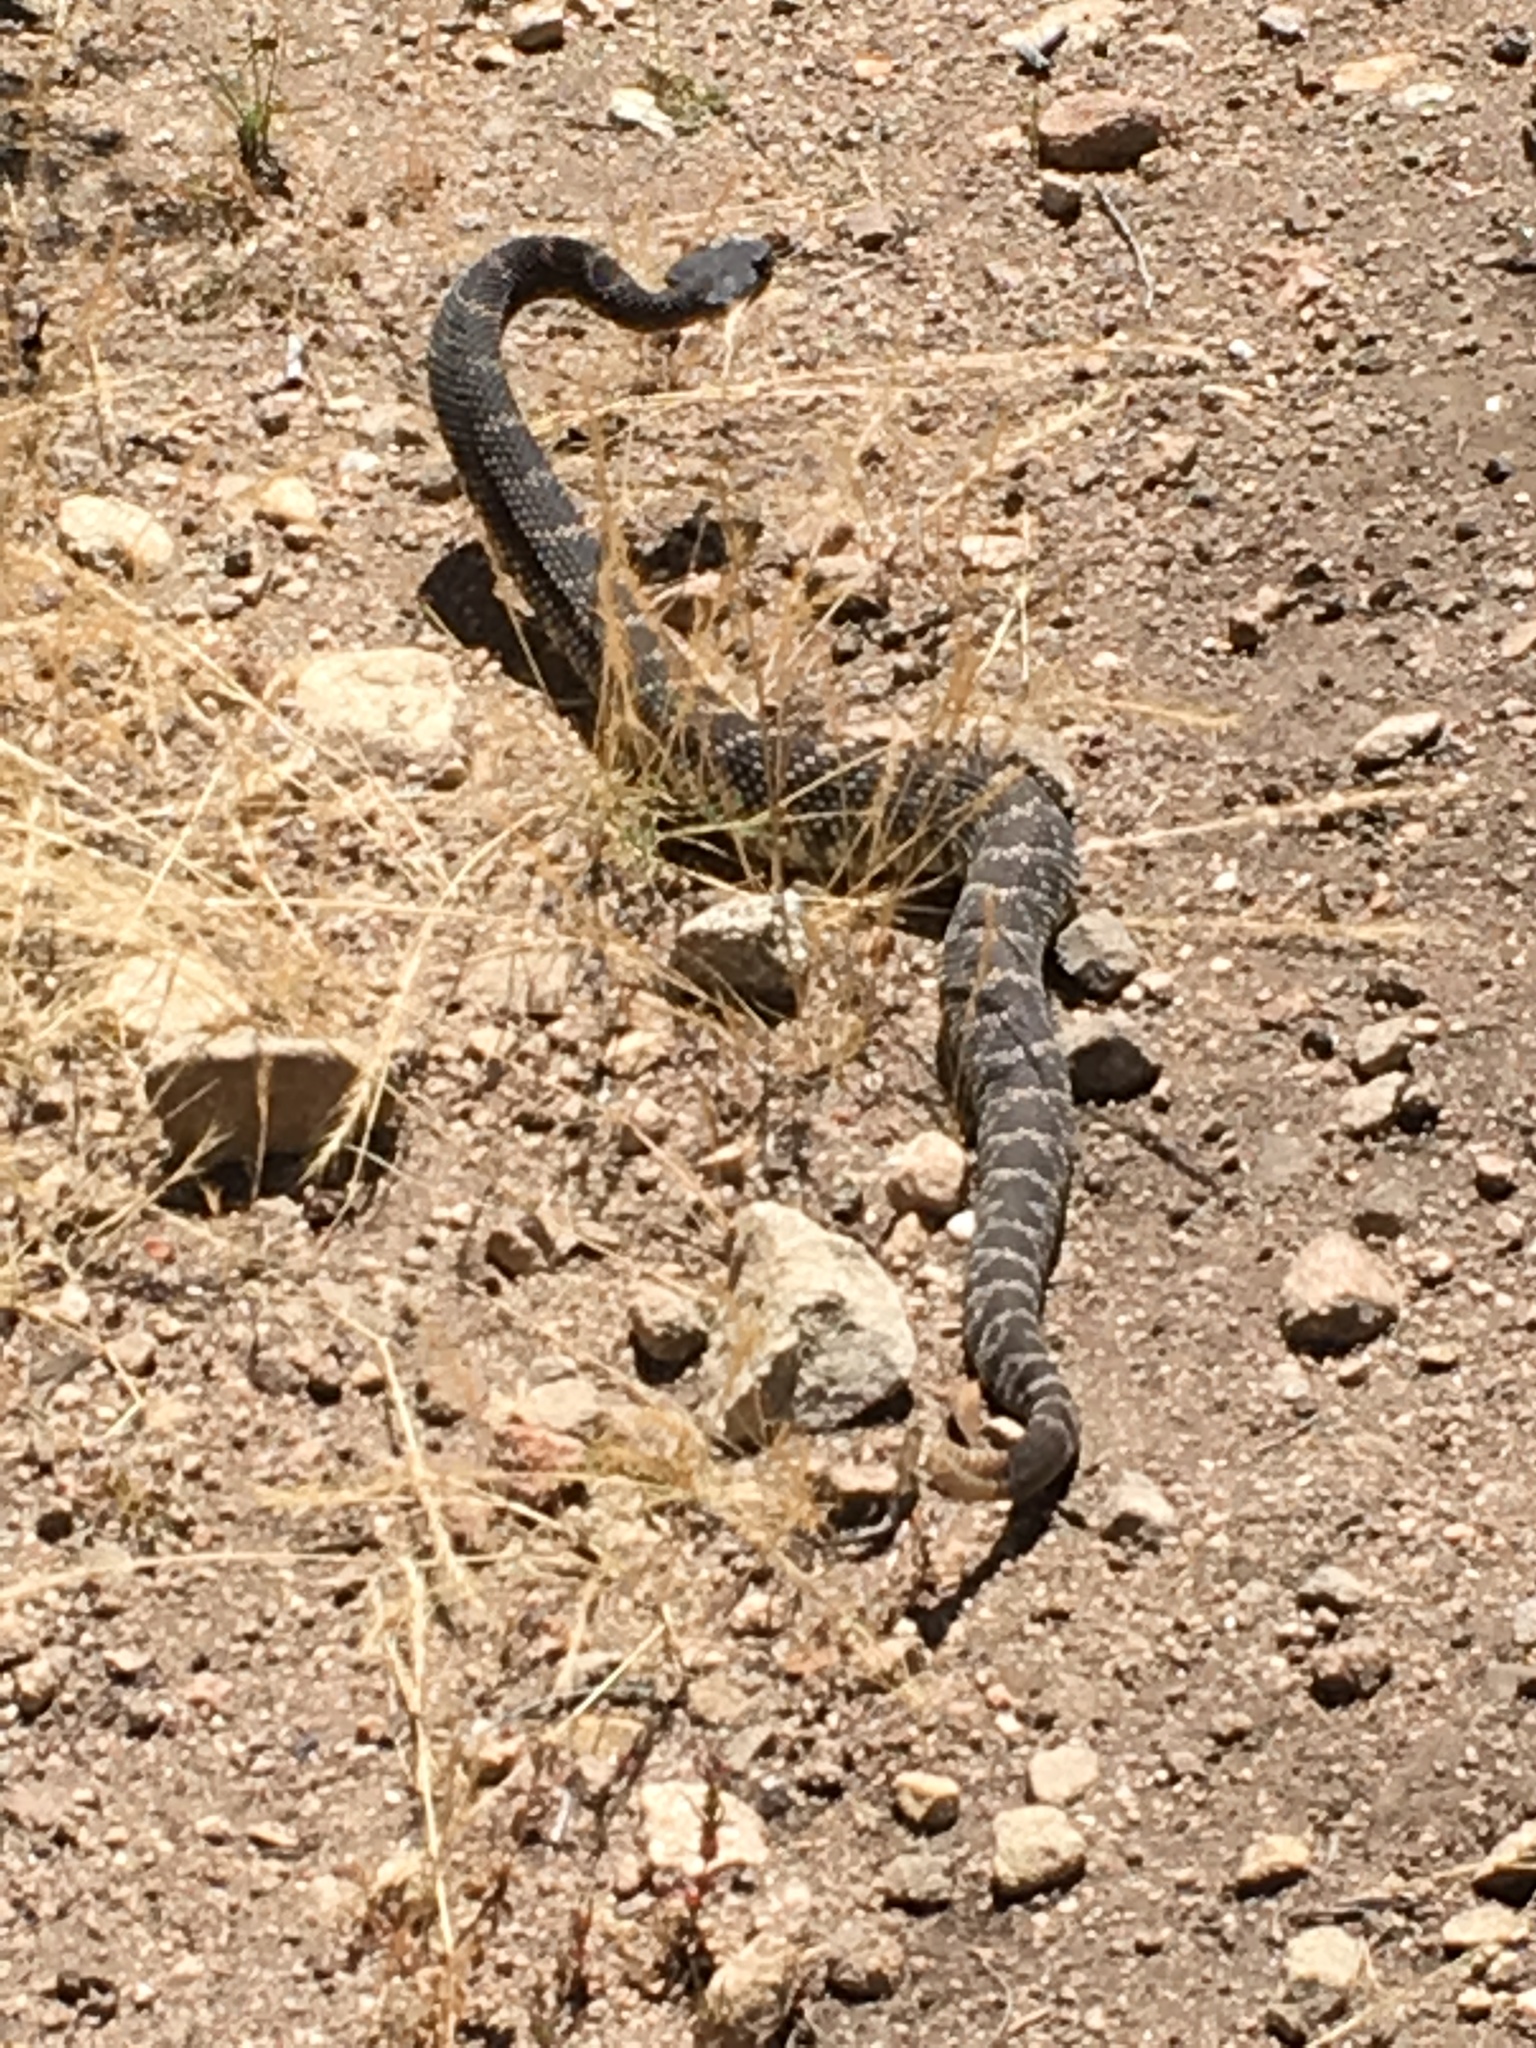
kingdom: Animalia
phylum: Chordata
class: Squamata
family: Viperidae
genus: Crotalus
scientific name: Crotalus oreganus
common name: Abyssus
